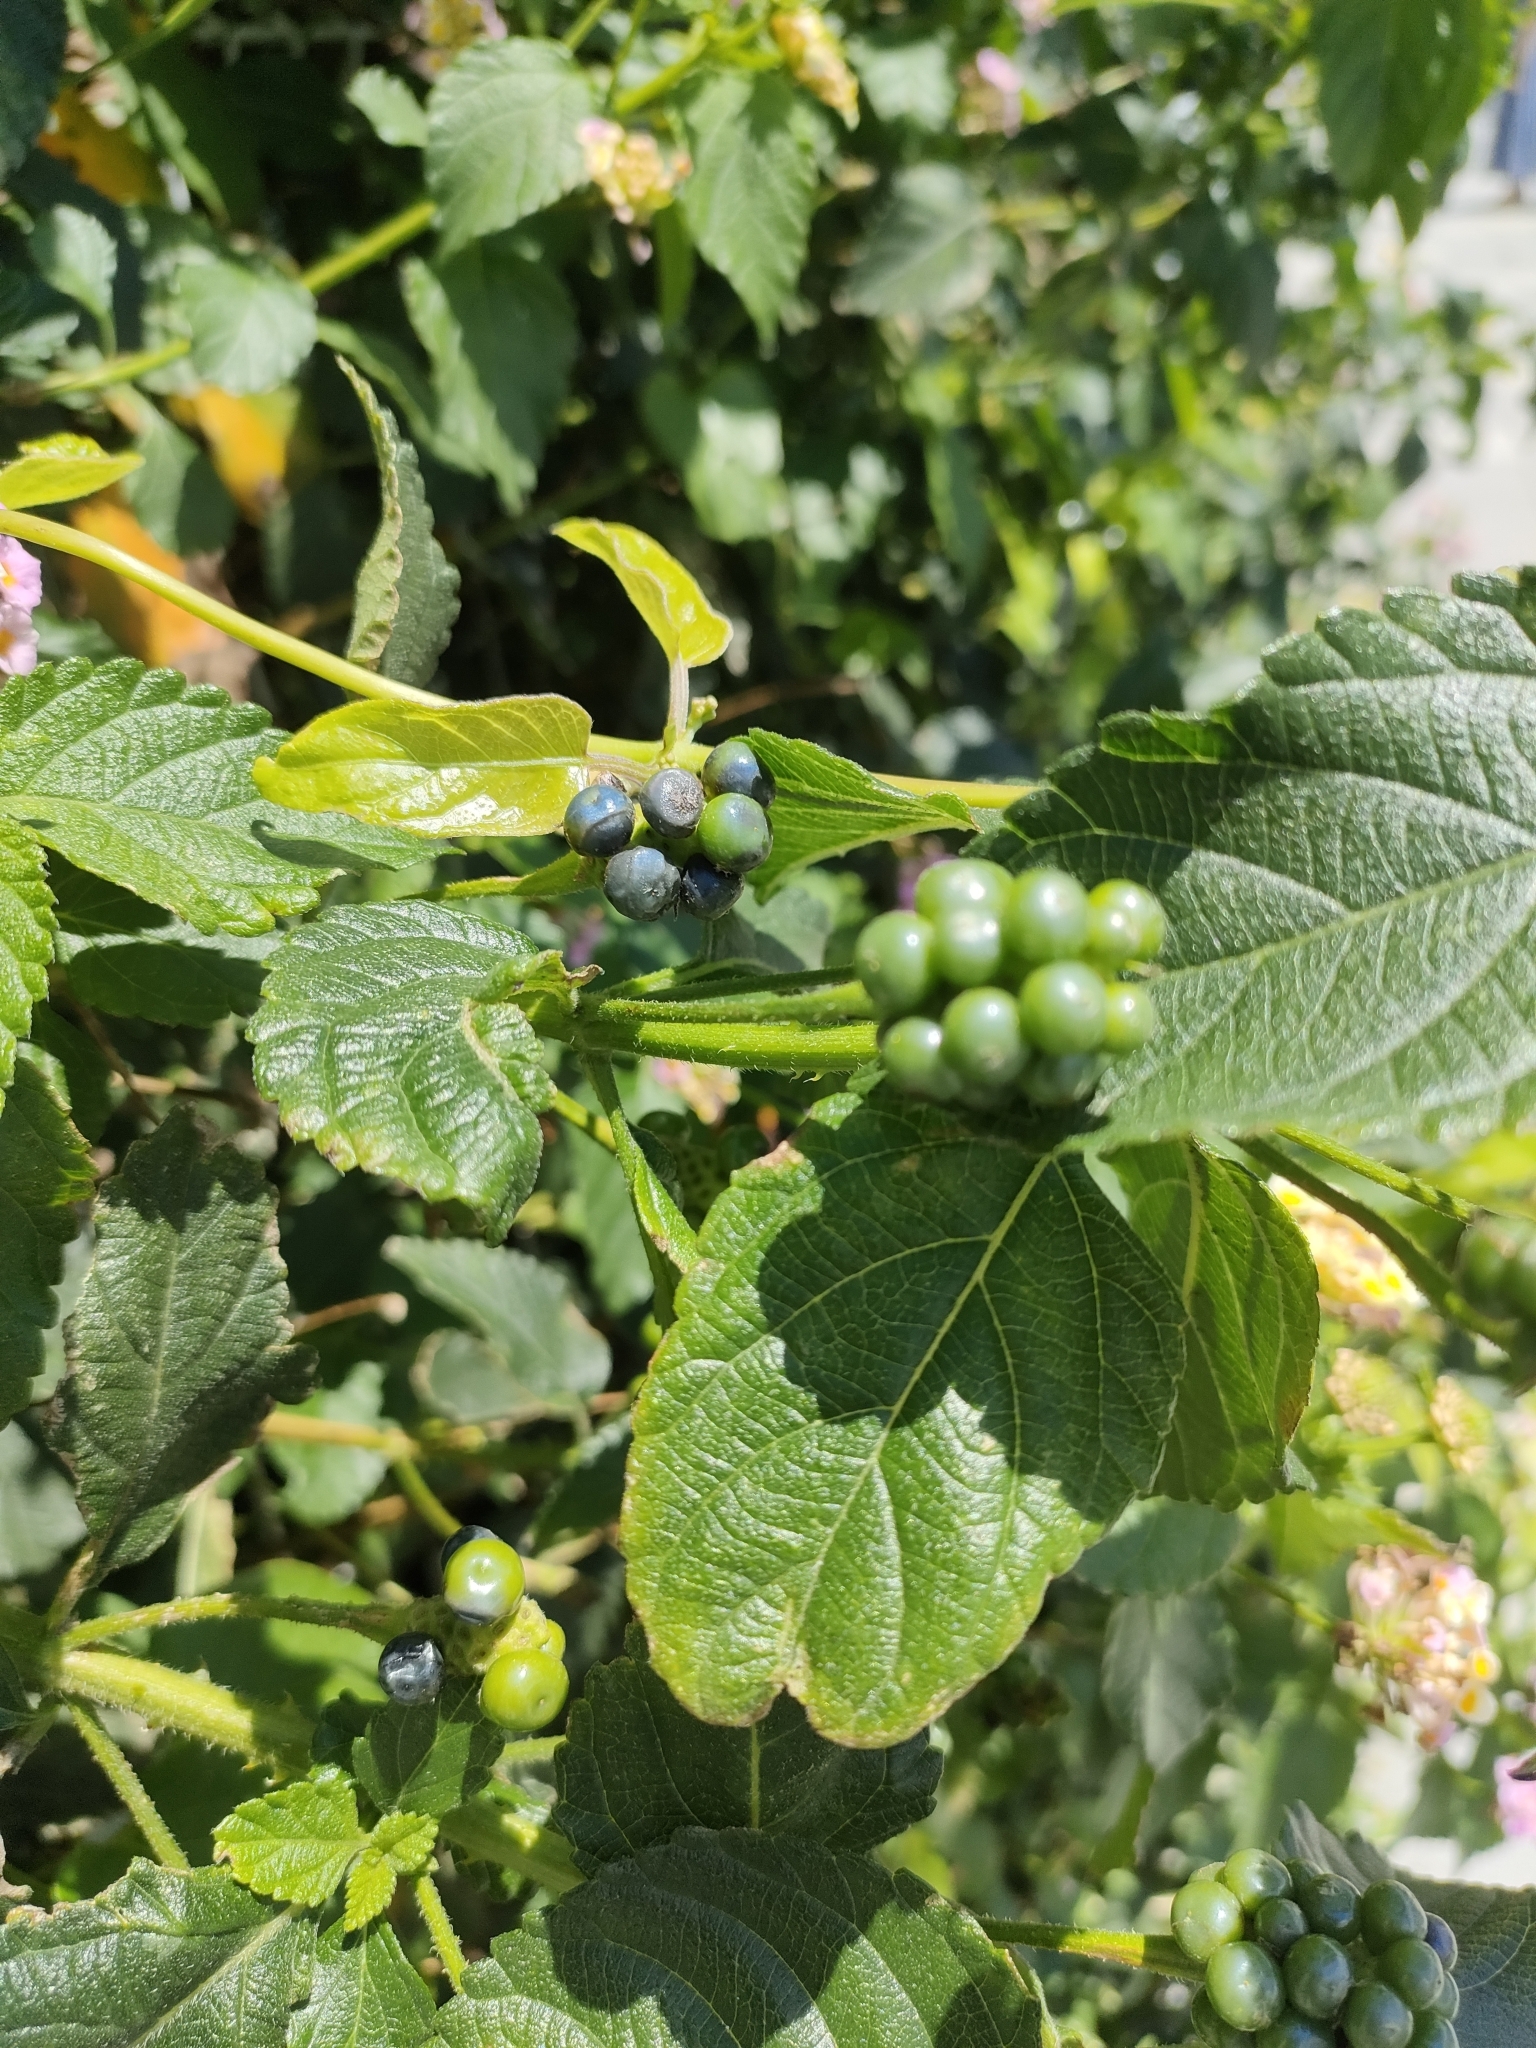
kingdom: Plantae
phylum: Tracheophyta
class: Magnoliopsida
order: Lamiales
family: Verbenaceae
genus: Lantana
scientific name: Lantana camara
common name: Lantana
